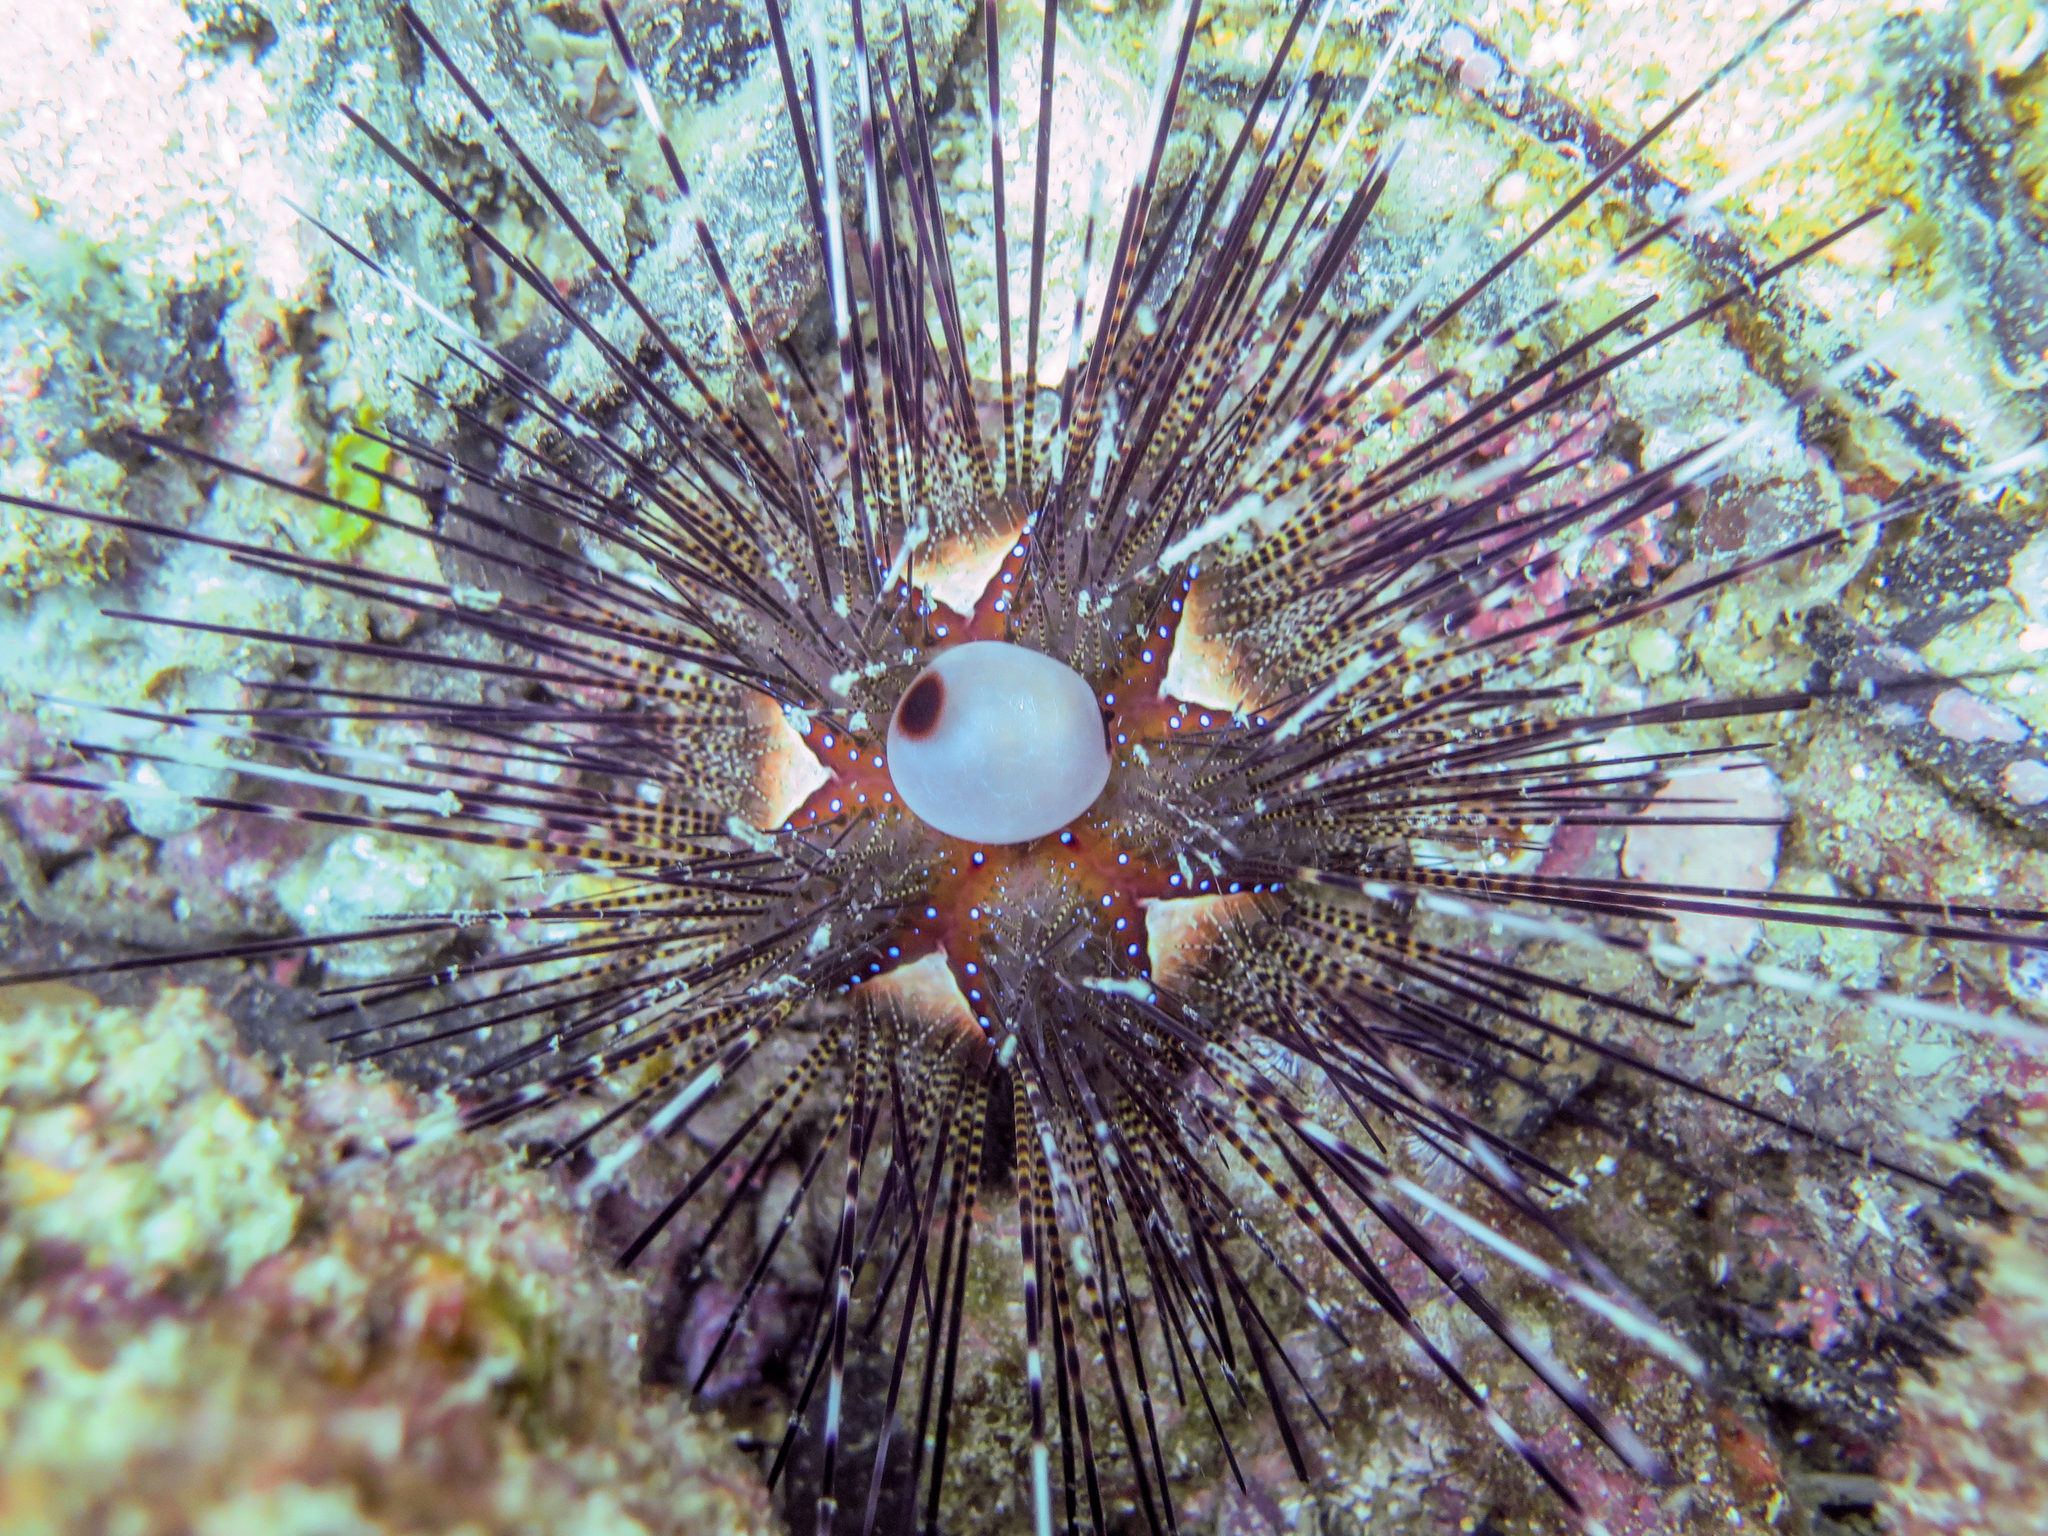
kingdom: Animalia
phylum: Echinodermata
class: Echinoidea
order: Diadematoida
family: Diadematidae
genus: Astropyga
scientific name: Astropyga pulvinata
